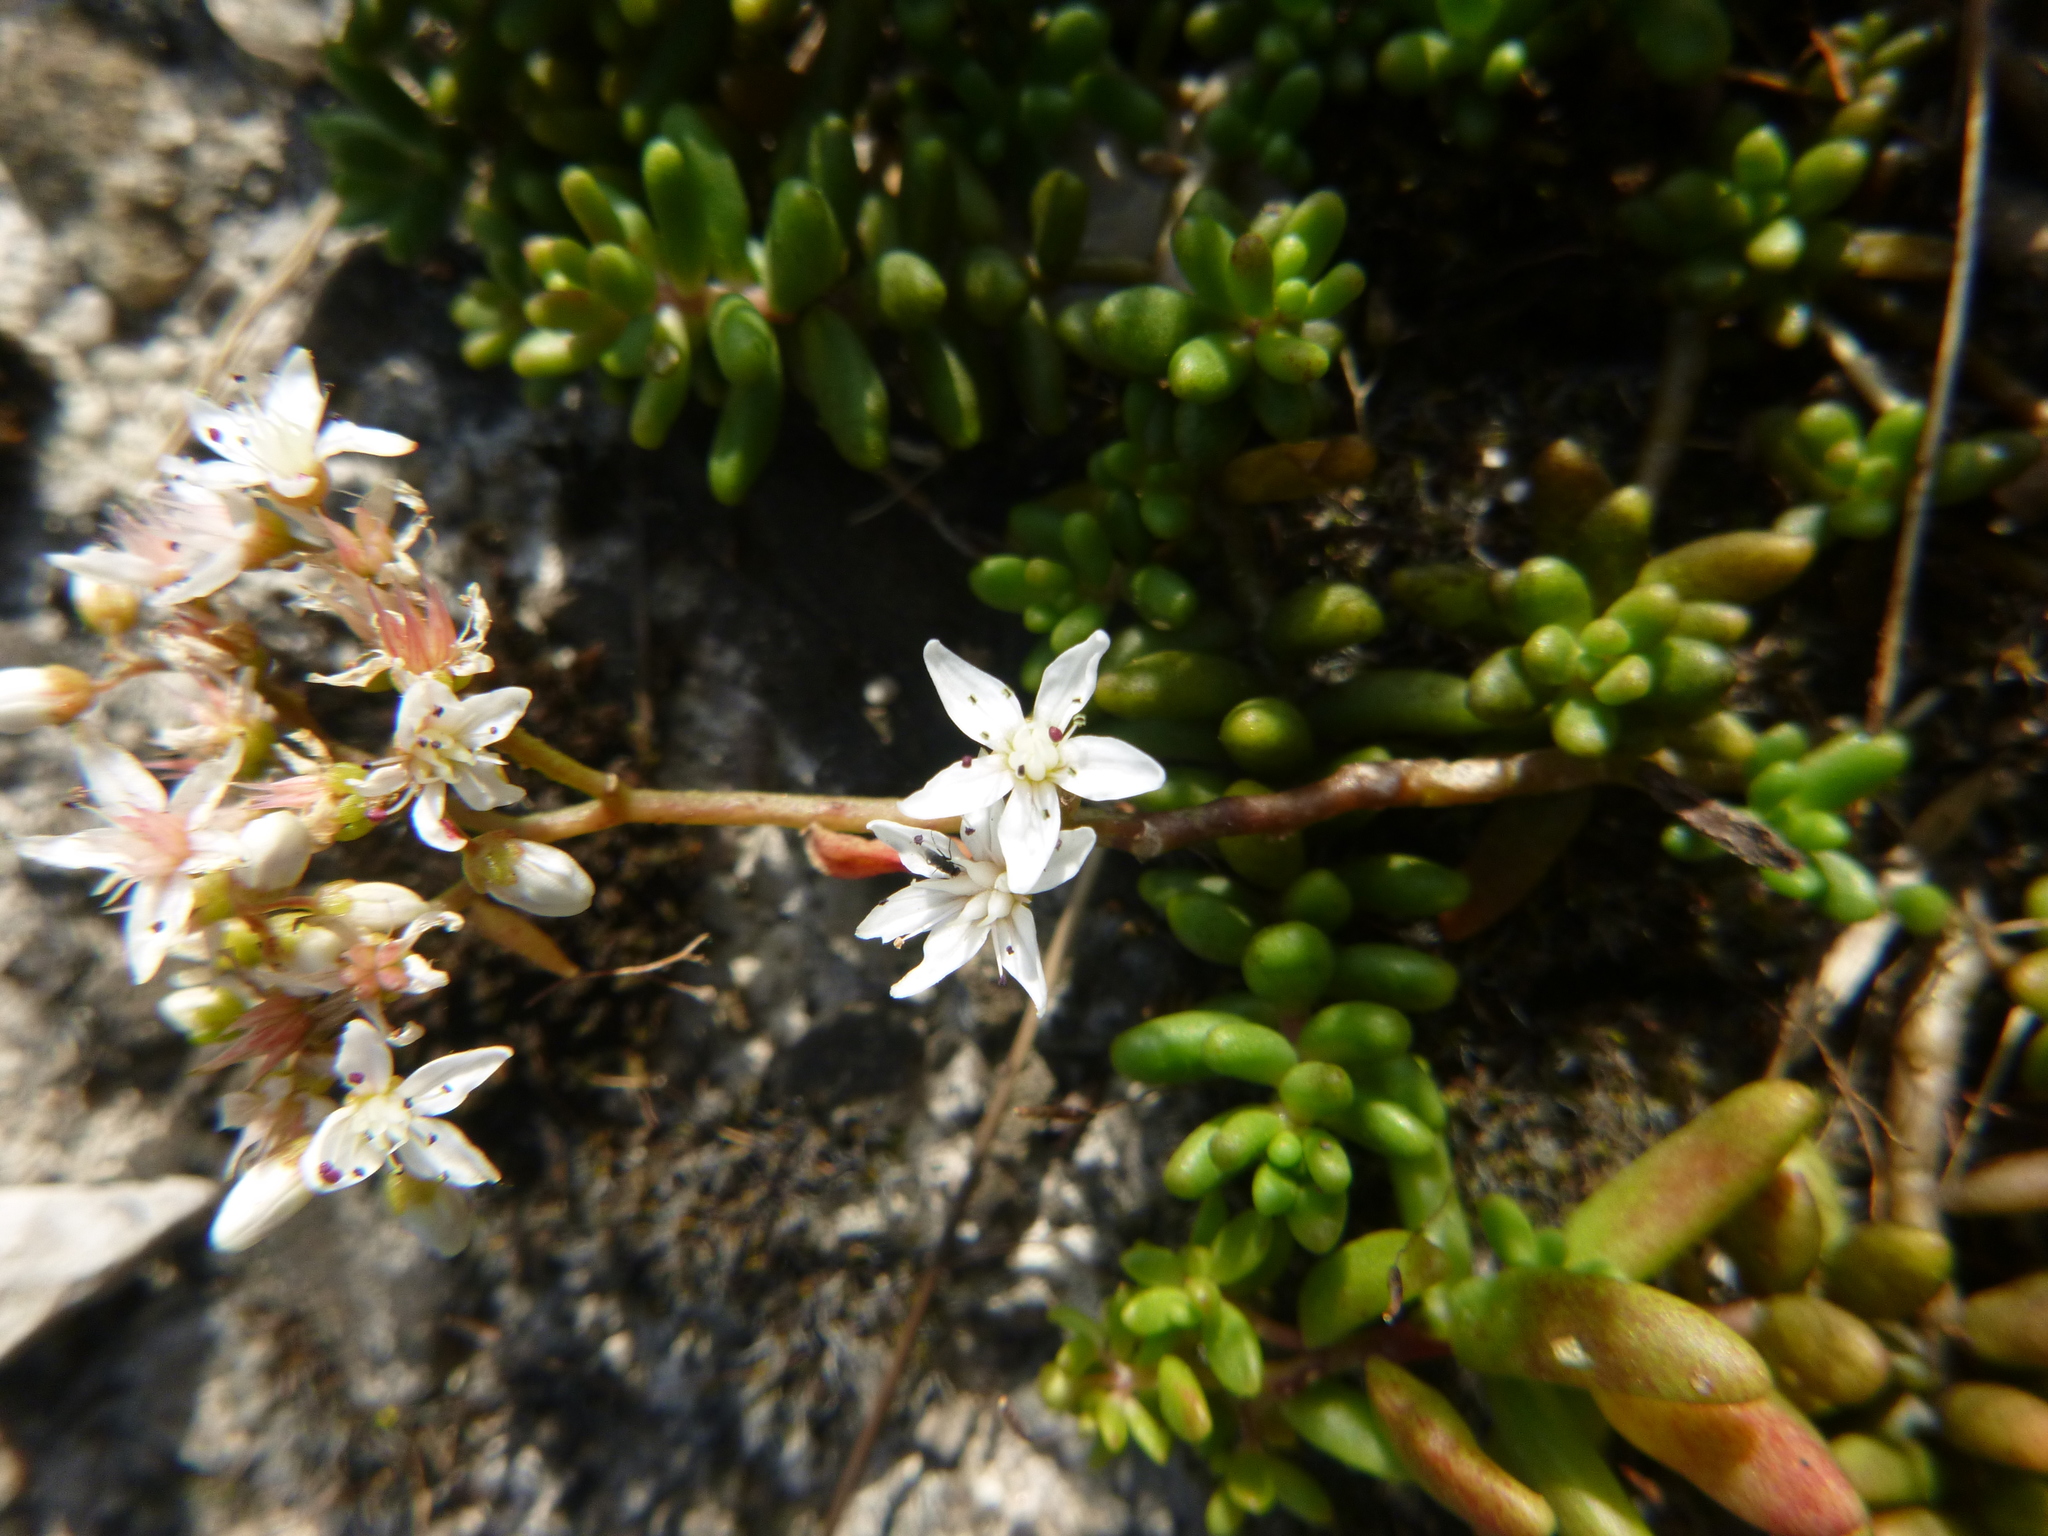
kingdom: Plantae
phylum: Tracheophyta
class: Magnoliopsida
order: Saxifragales
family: Crassulaceae
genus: Sedum
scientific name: Sedum album
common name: White stonecrop
